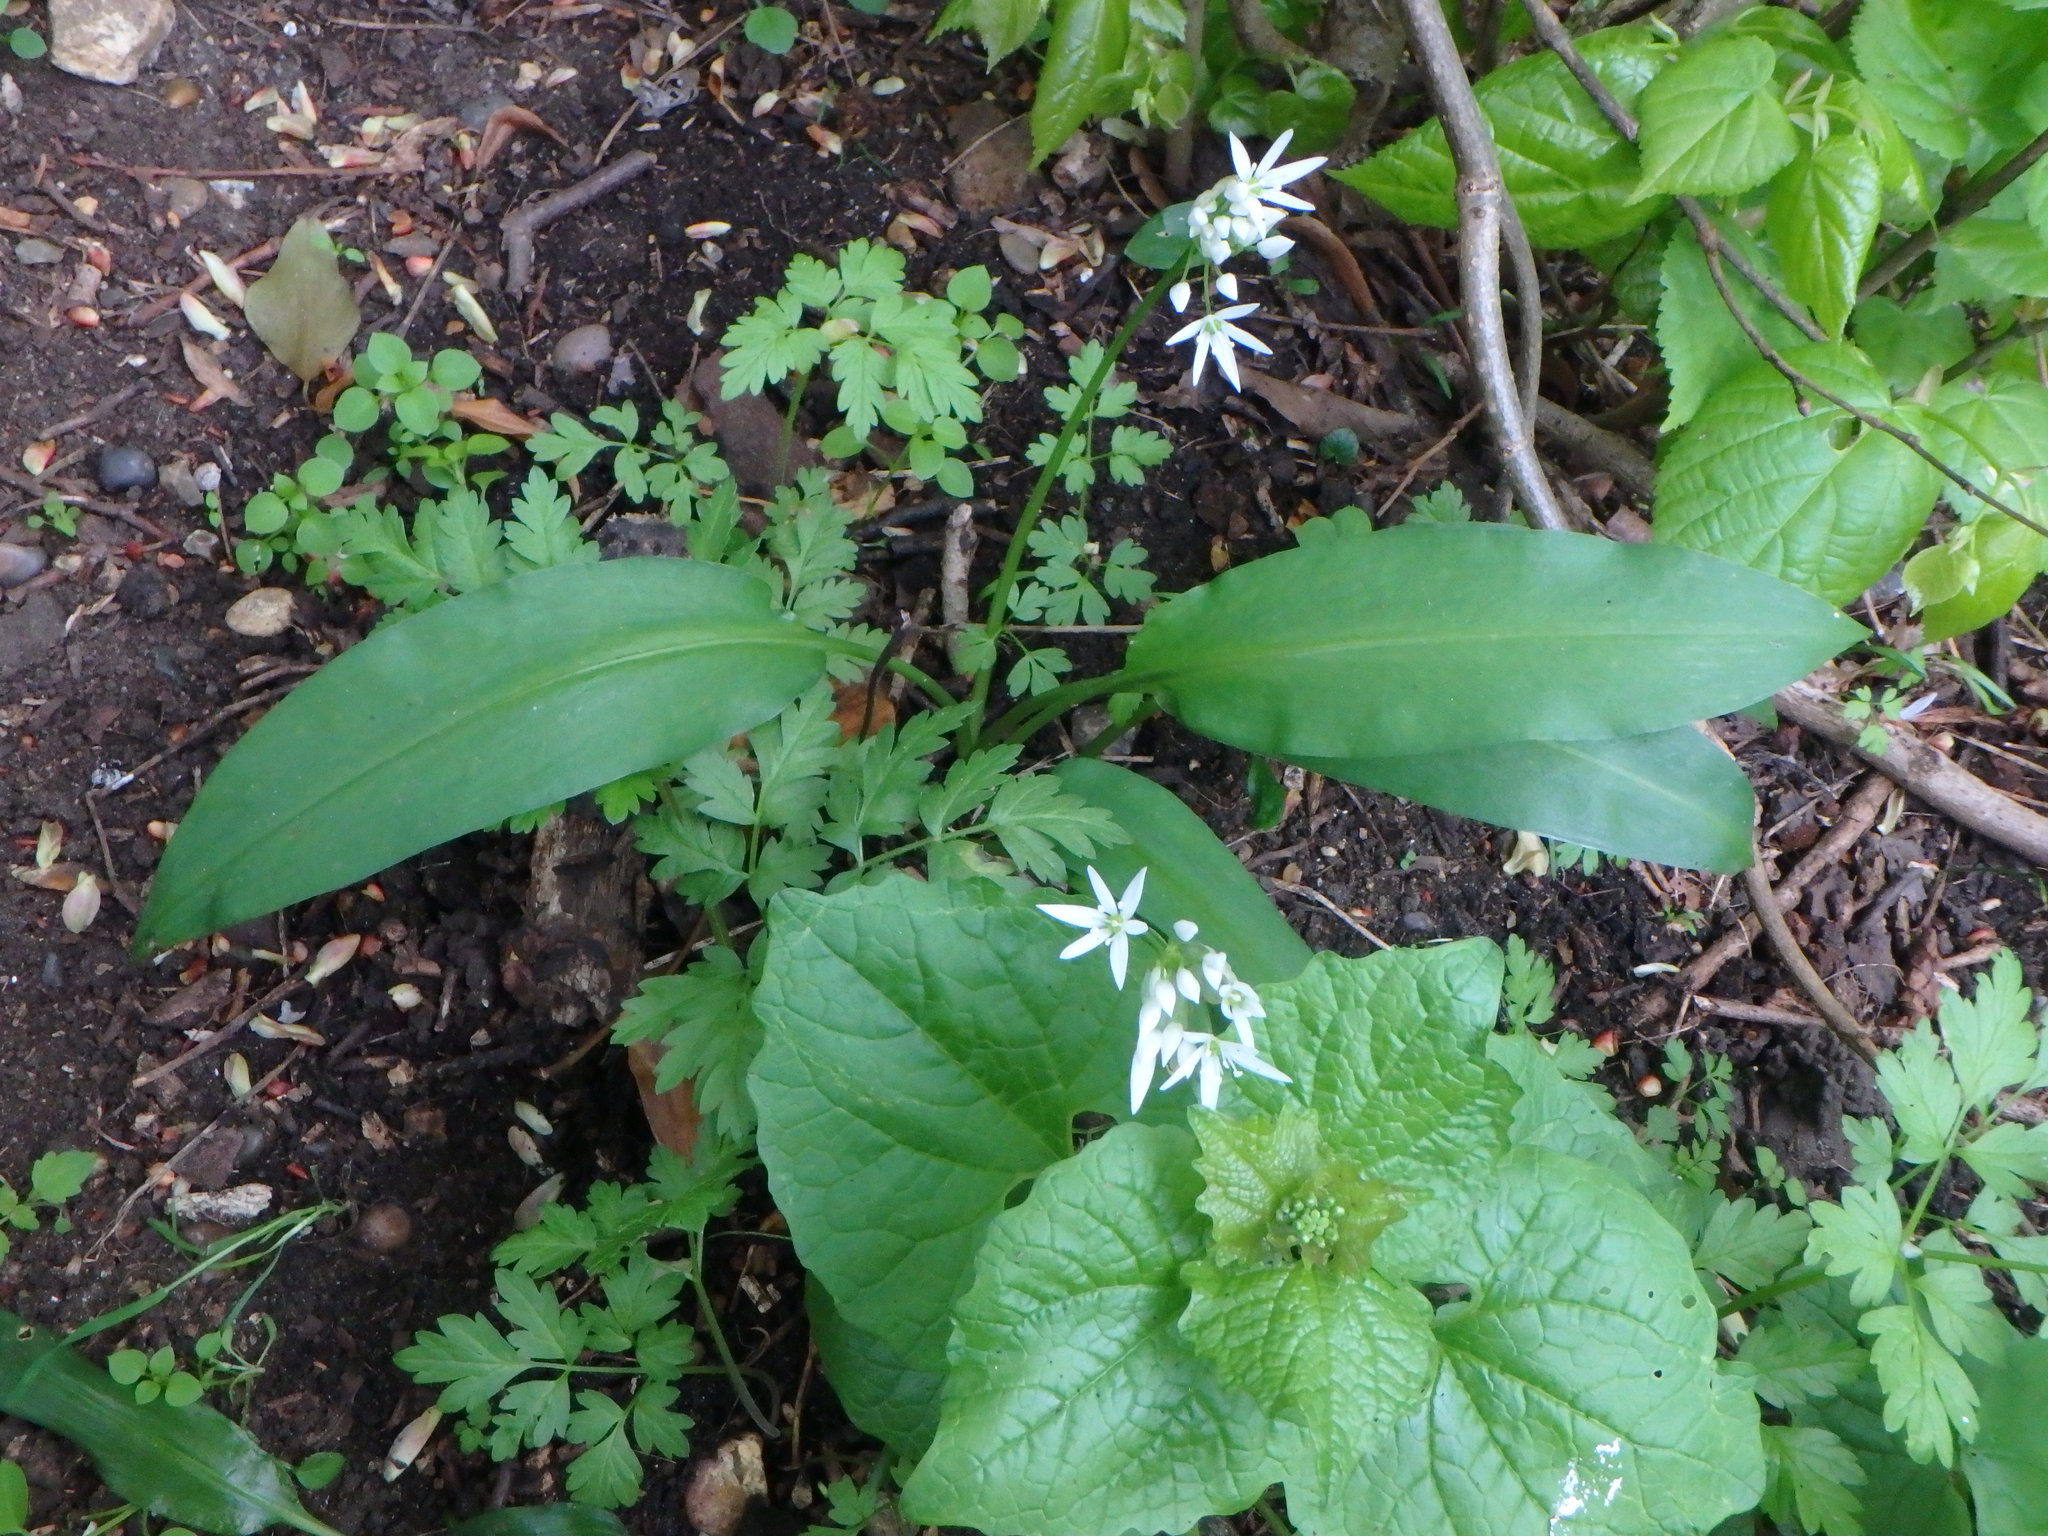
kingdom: Plantae
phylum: Tracheophyta
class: Liliopsida
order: Asparagales
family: Amaryllidaceae
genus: Allium
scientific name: Allium ursinum
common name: Ramsons
